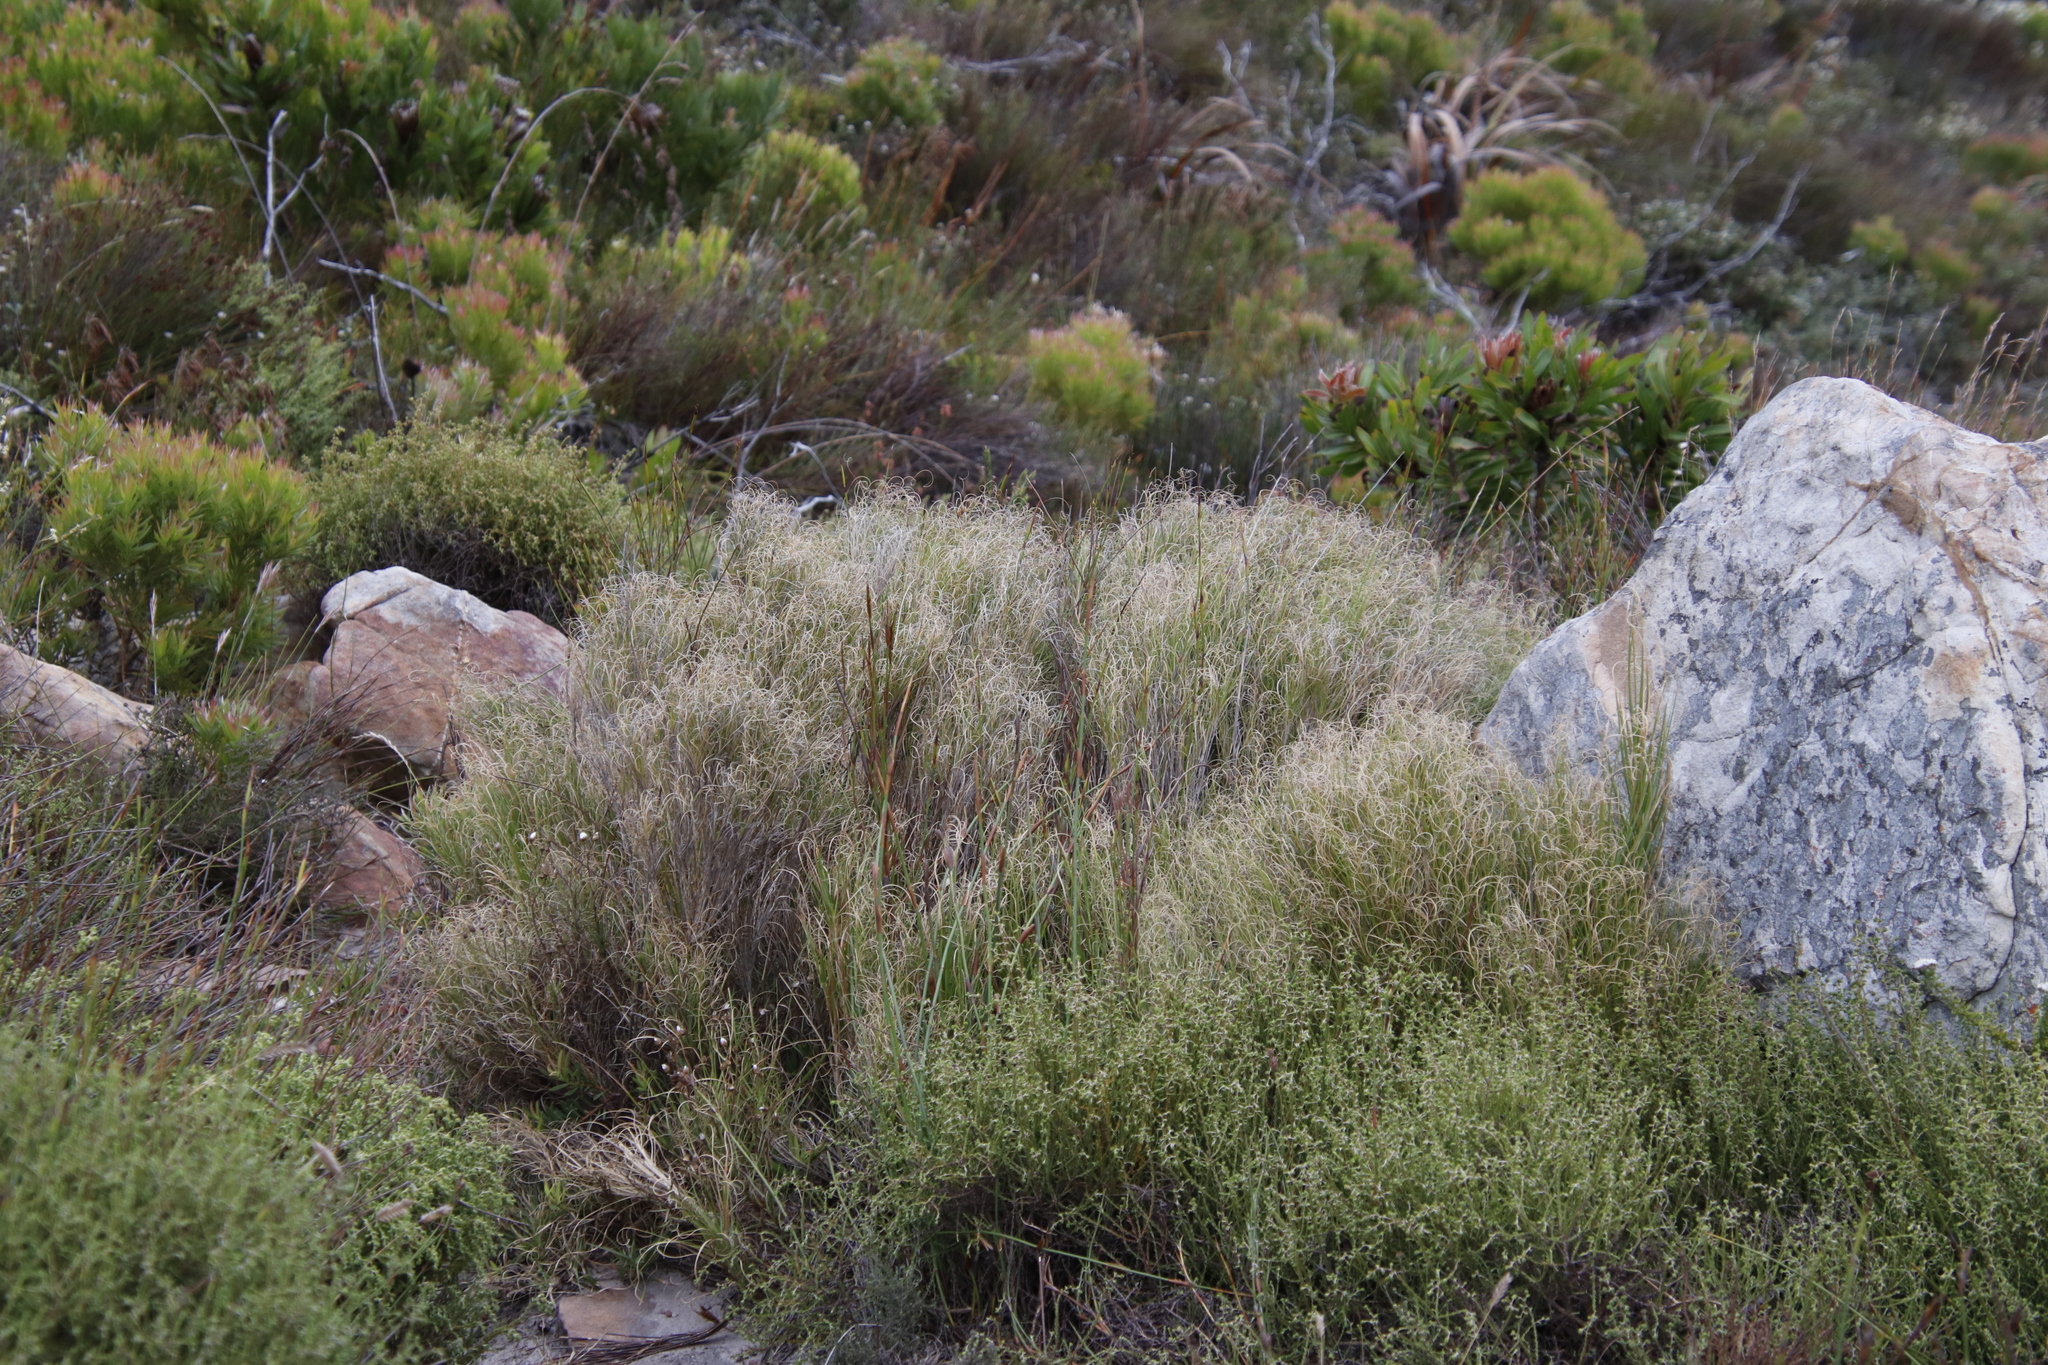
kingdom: Plantae
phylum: Tracheophyta
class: Liliopsida
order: Poales
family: Poaceae
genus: Pseudopentameris
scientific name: Pseudopentameris macrantha
